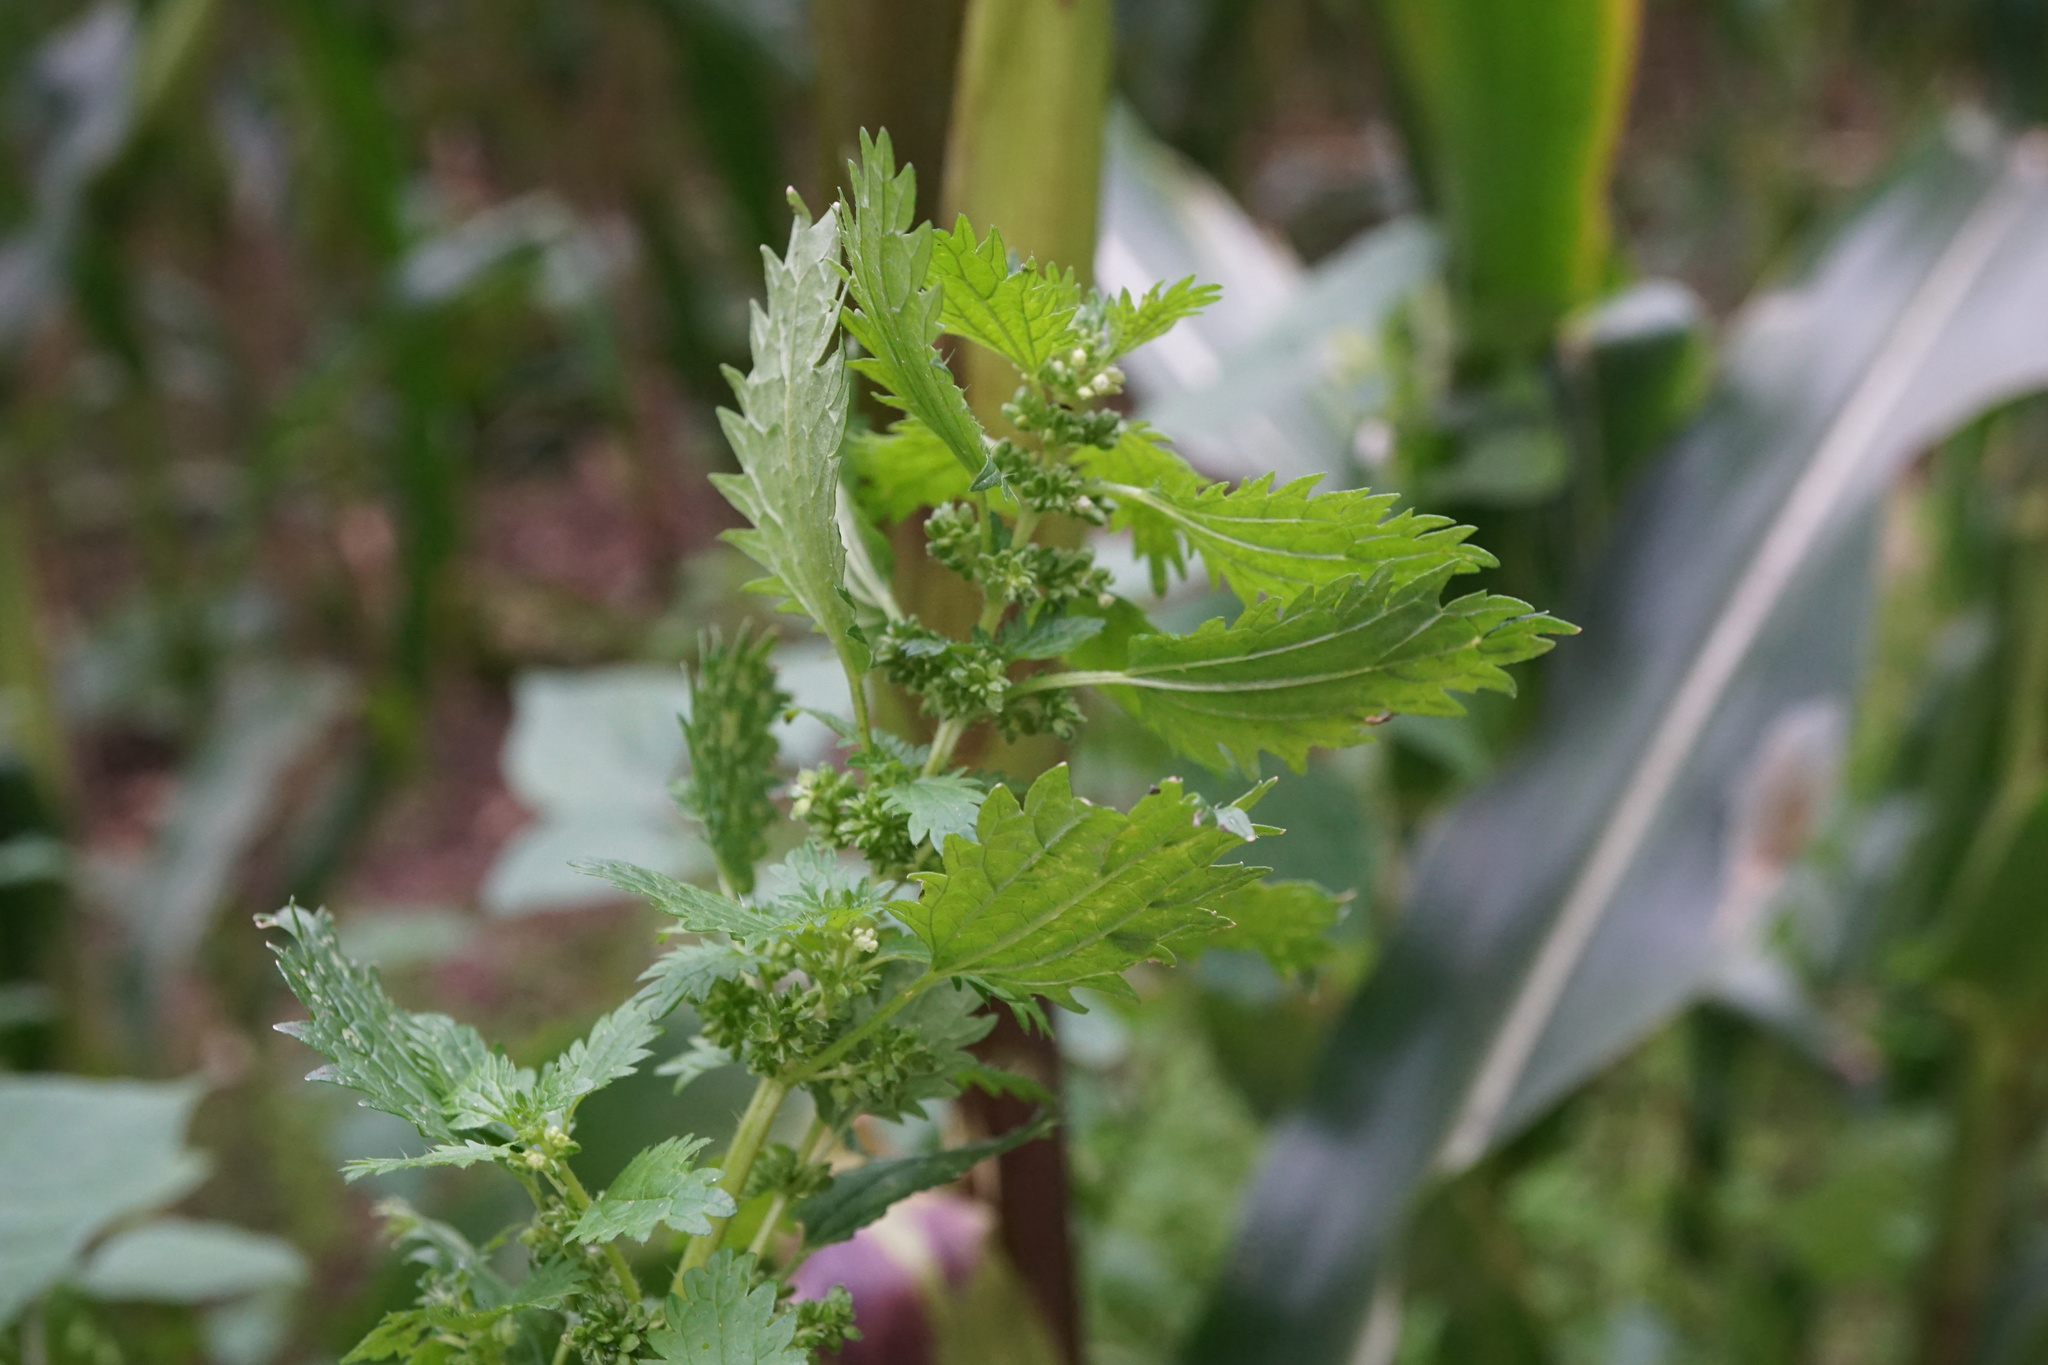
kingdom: Plantae
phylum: Tracheophyta
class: Magnoliopsida
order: Rosales
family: Urticaceae
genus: Urtica
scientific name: Urtica urens
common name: Dwarf nettle
